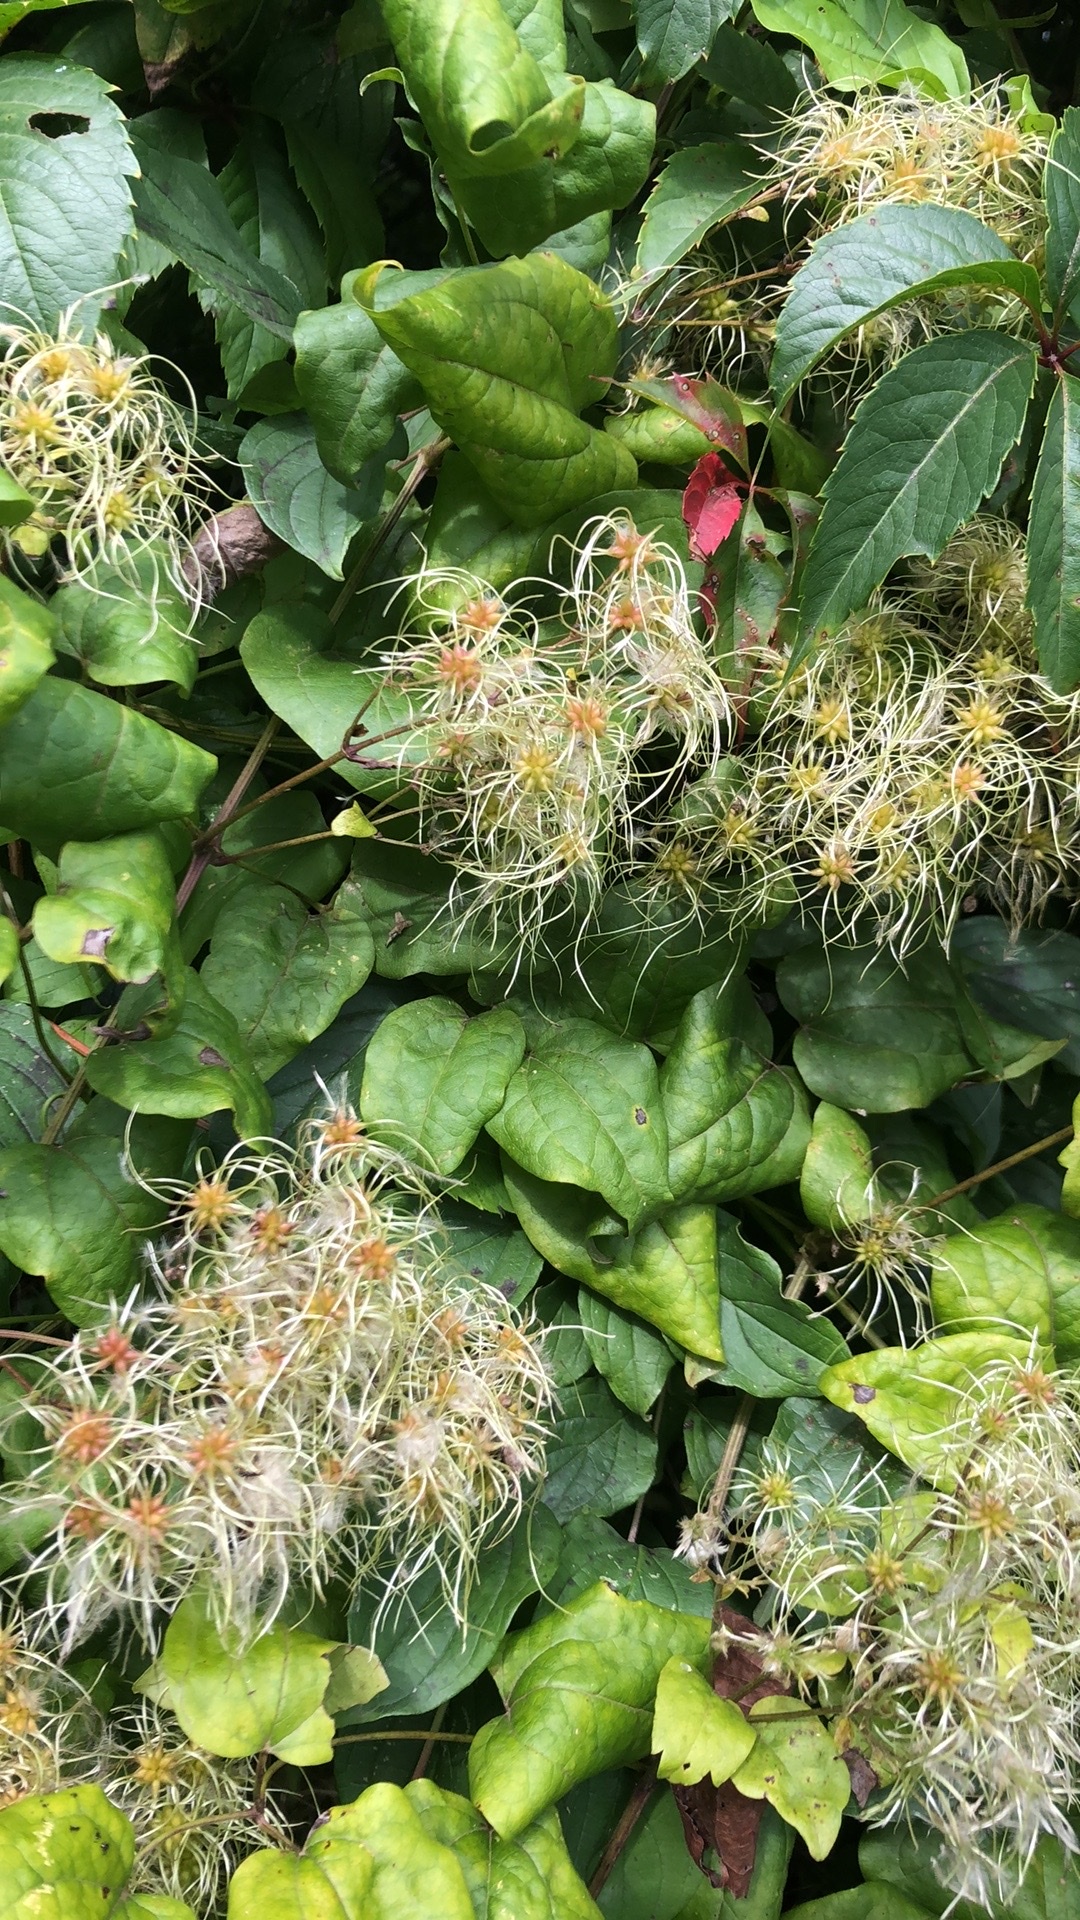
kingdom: Plantae
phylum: Tracheophyta
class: Magnoliopsida
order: Ranunculales
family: Ranunculaceae
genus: Clematis
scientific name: Clematis vitalba
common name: Evergreen clematis
